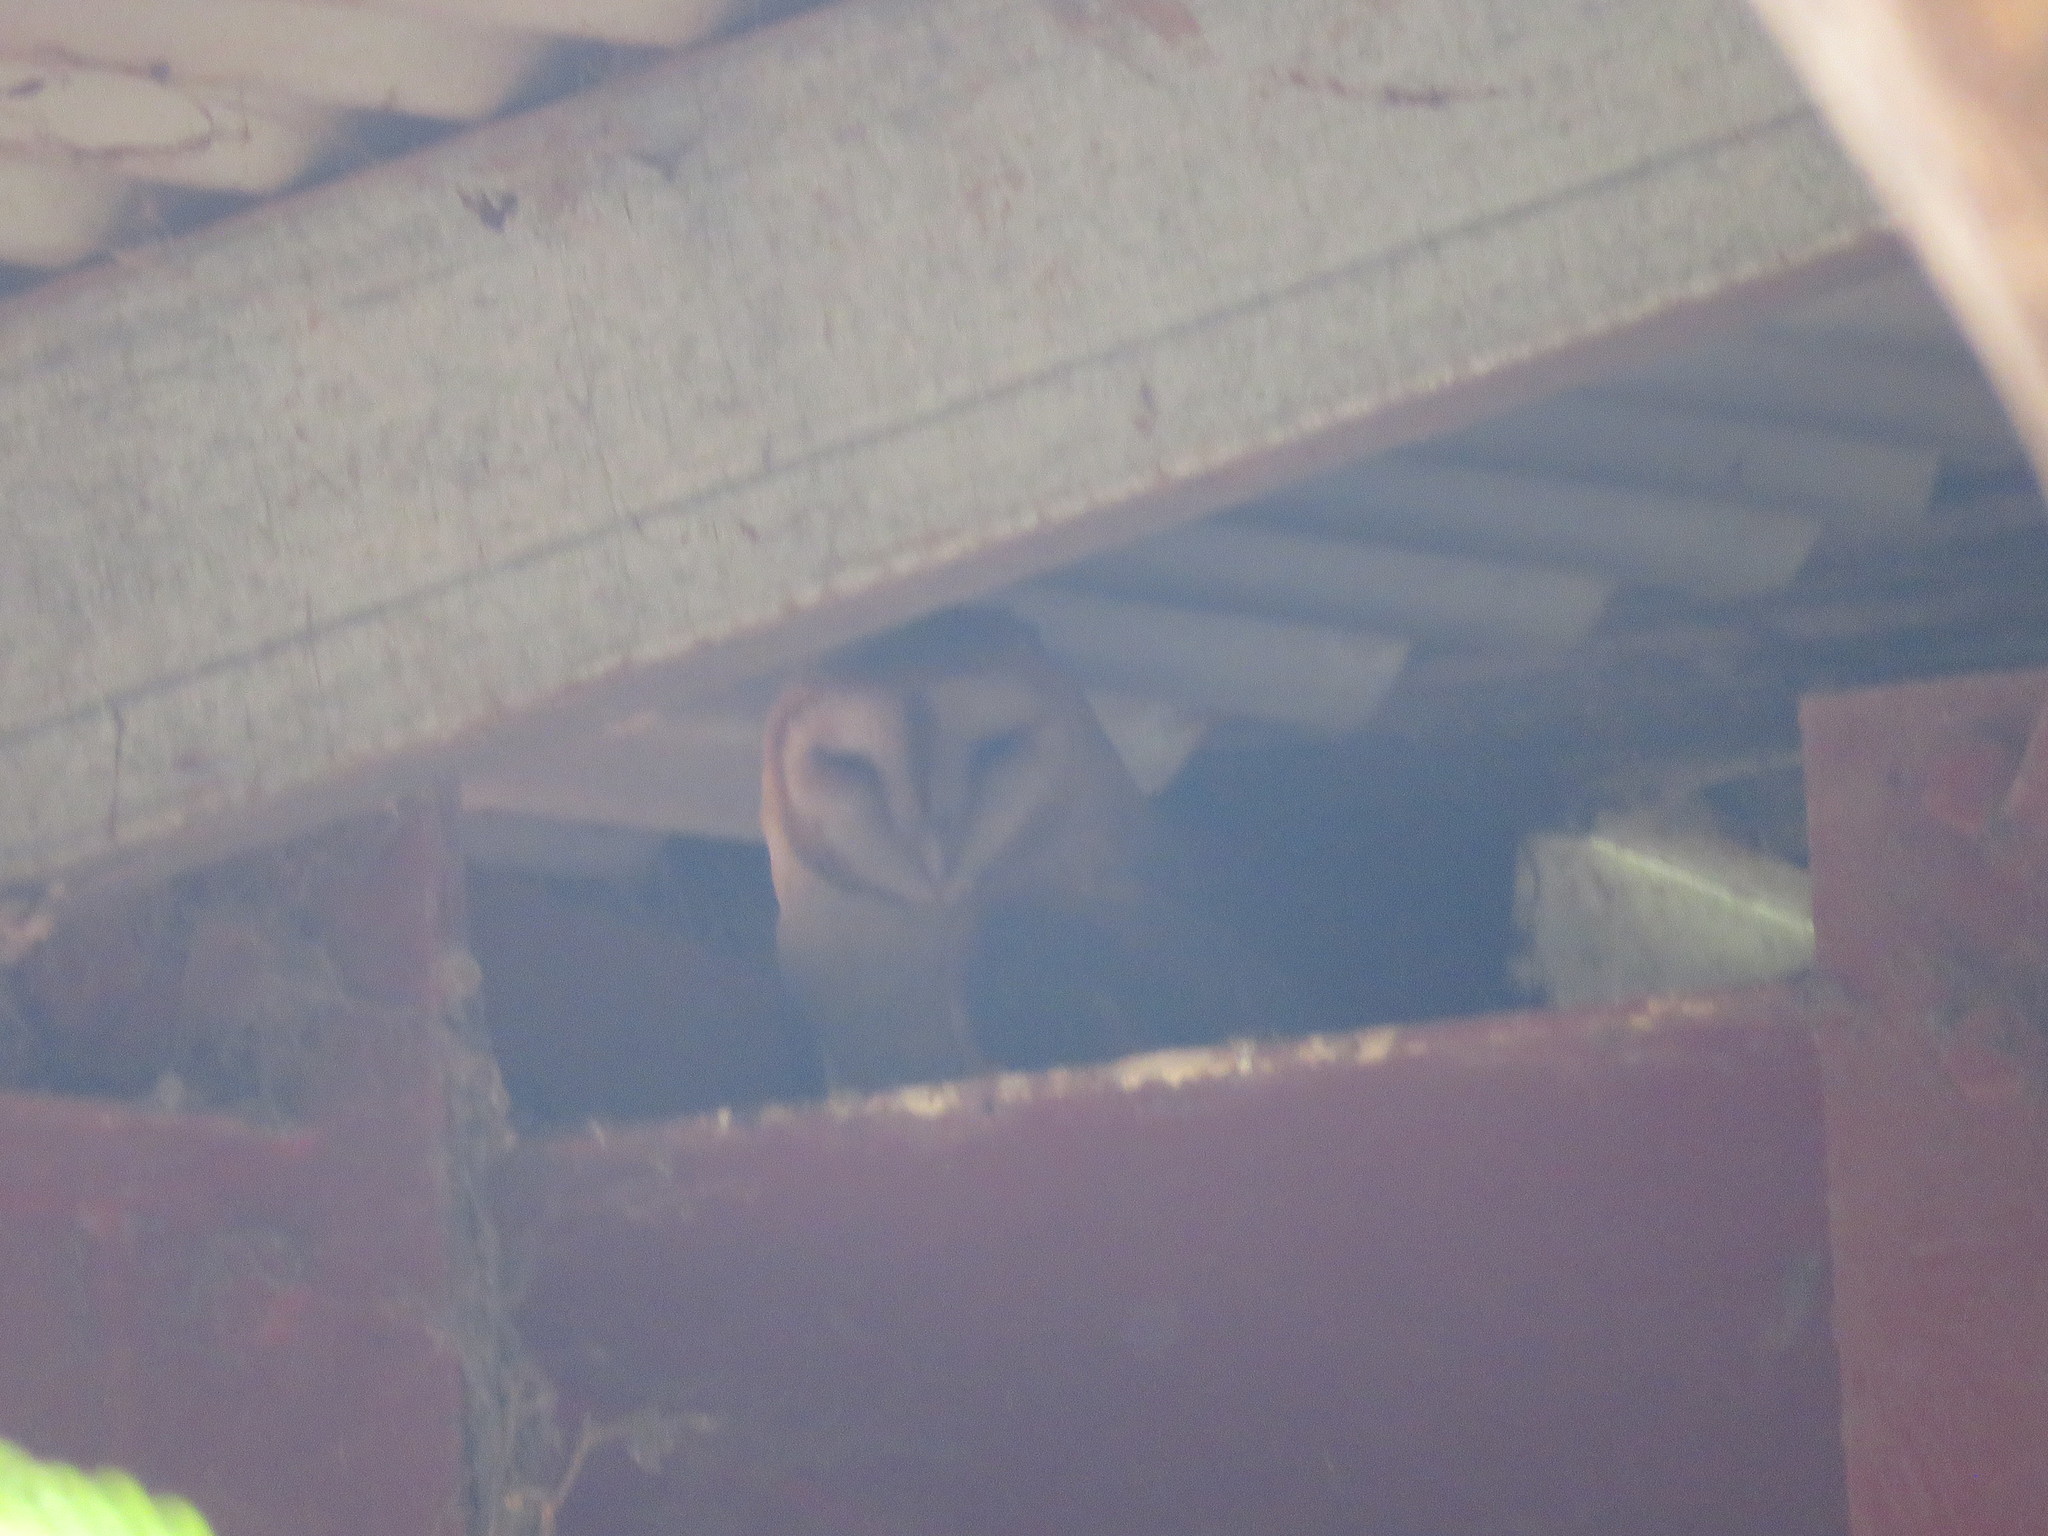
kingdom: Animalia
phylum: Chordata
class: Aves
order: Strigiformes
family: Tytonidae
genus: Tyto
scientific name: Tyto alba
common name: Barn owl
